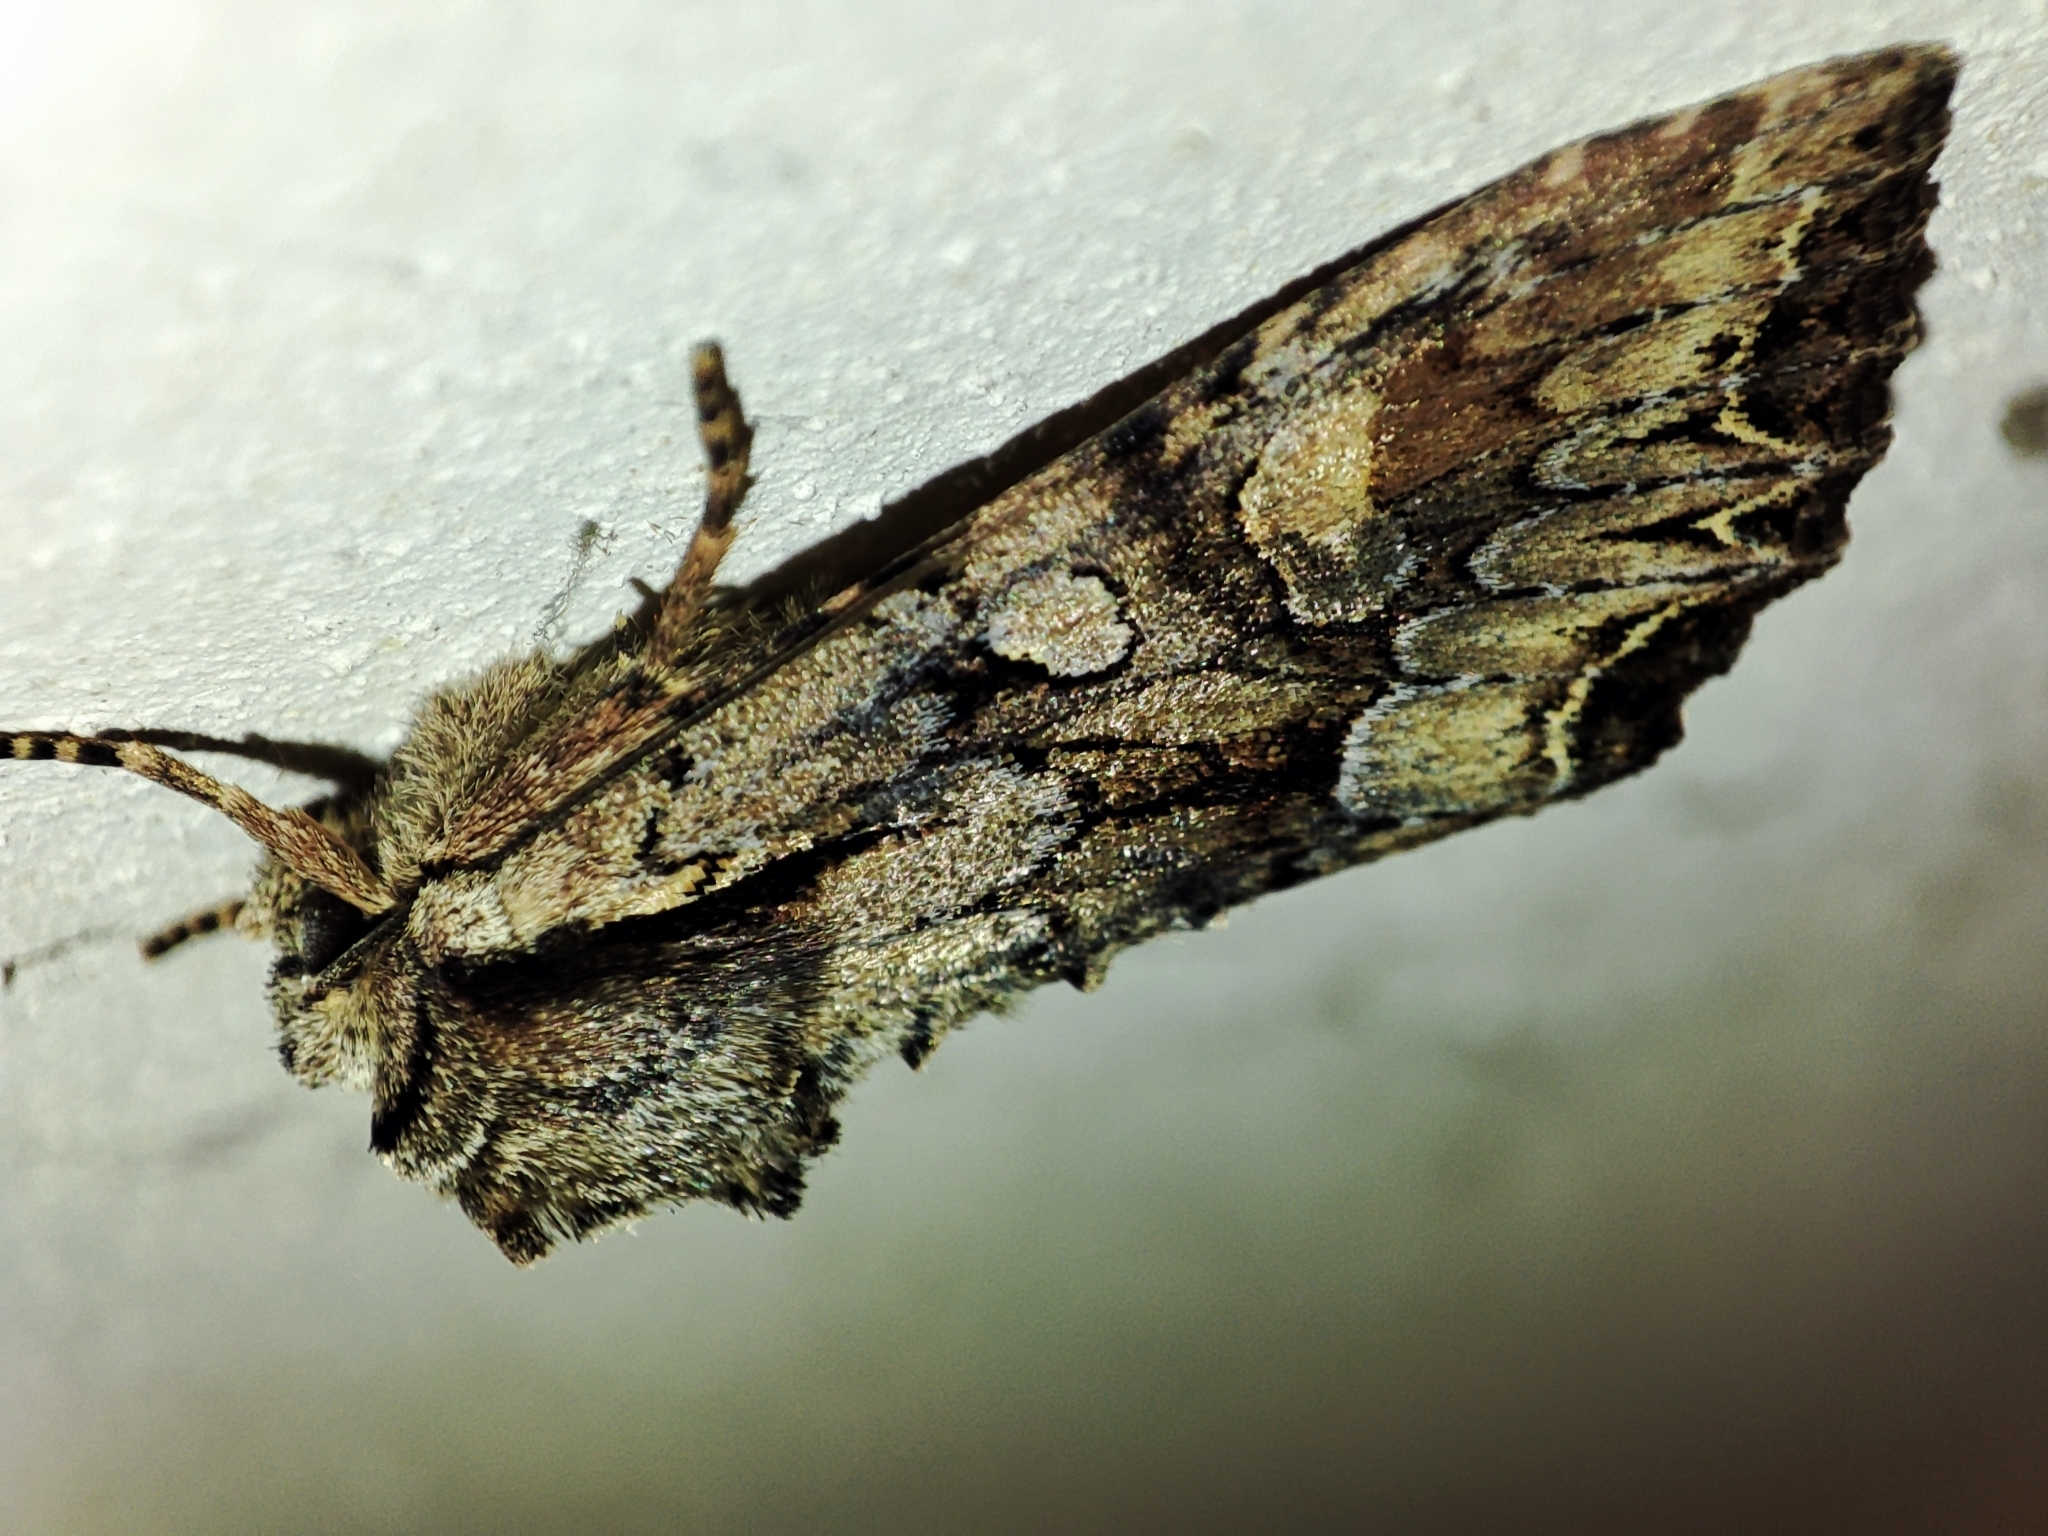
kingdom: Animalia
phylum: Arthropoda
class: Insecta
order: Lepidoptera
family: Noctuidae
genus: Lacanobia
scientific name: Lacanobia thalassina
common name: Pale-shouldered brocade
